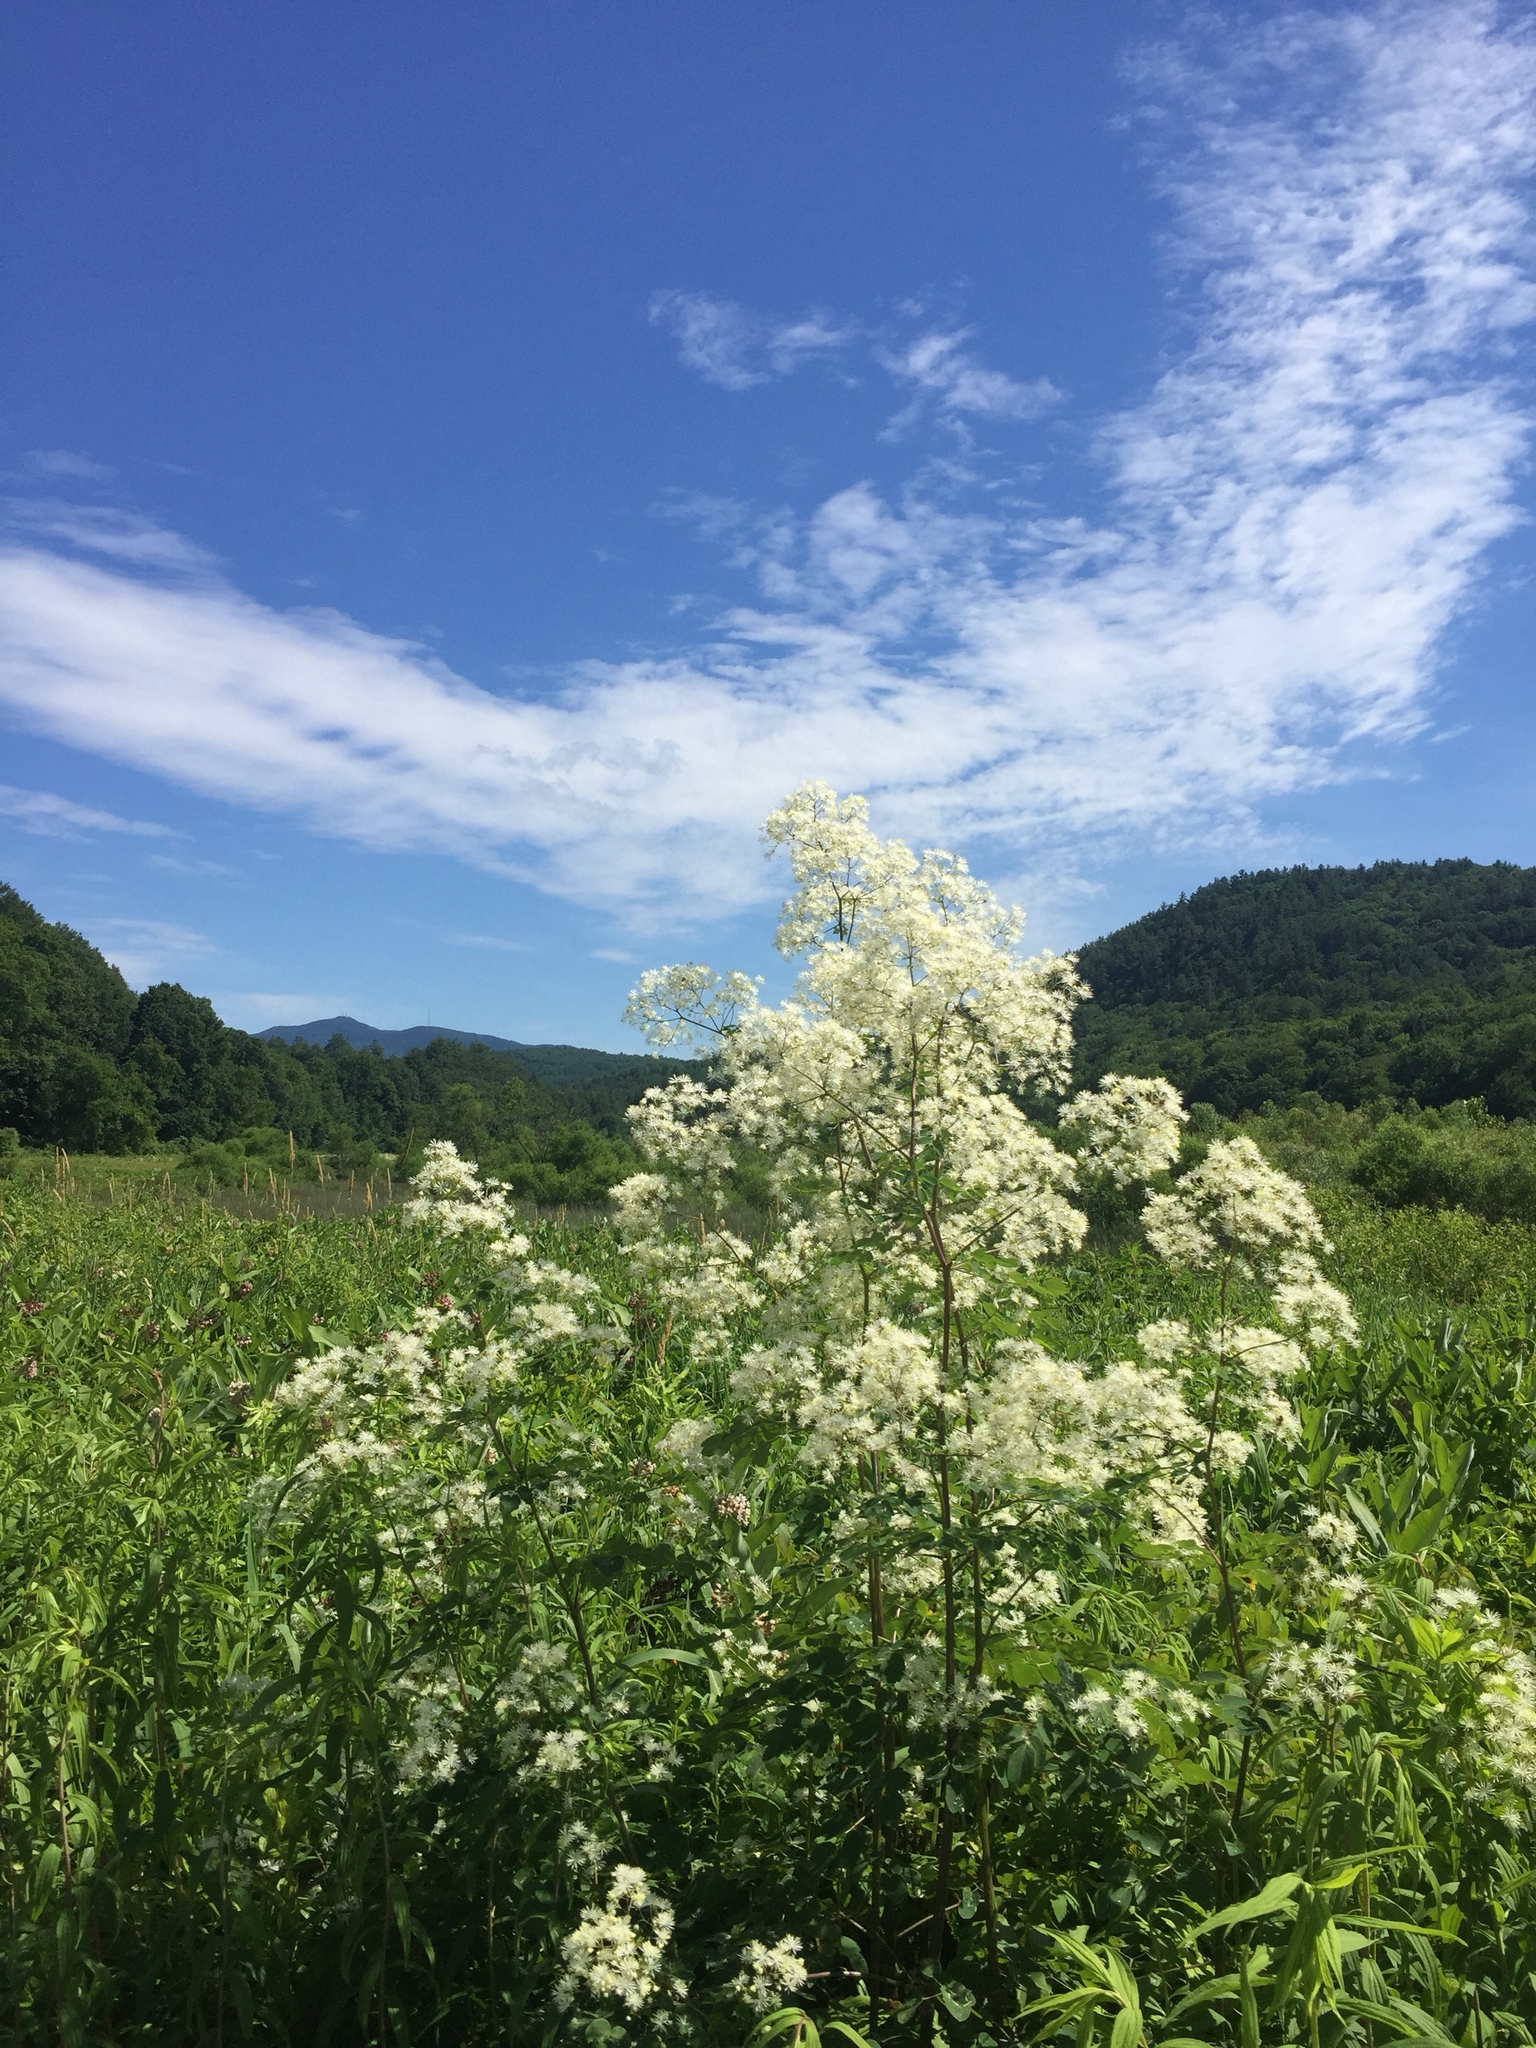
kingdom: Plantae
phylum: Tracheophyta
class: Magnoliopsida
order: Ranunculales
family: Ranunculaceae
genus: Thalictrum
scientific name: Thalictrum pubescens
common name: King-of-the-meadow
